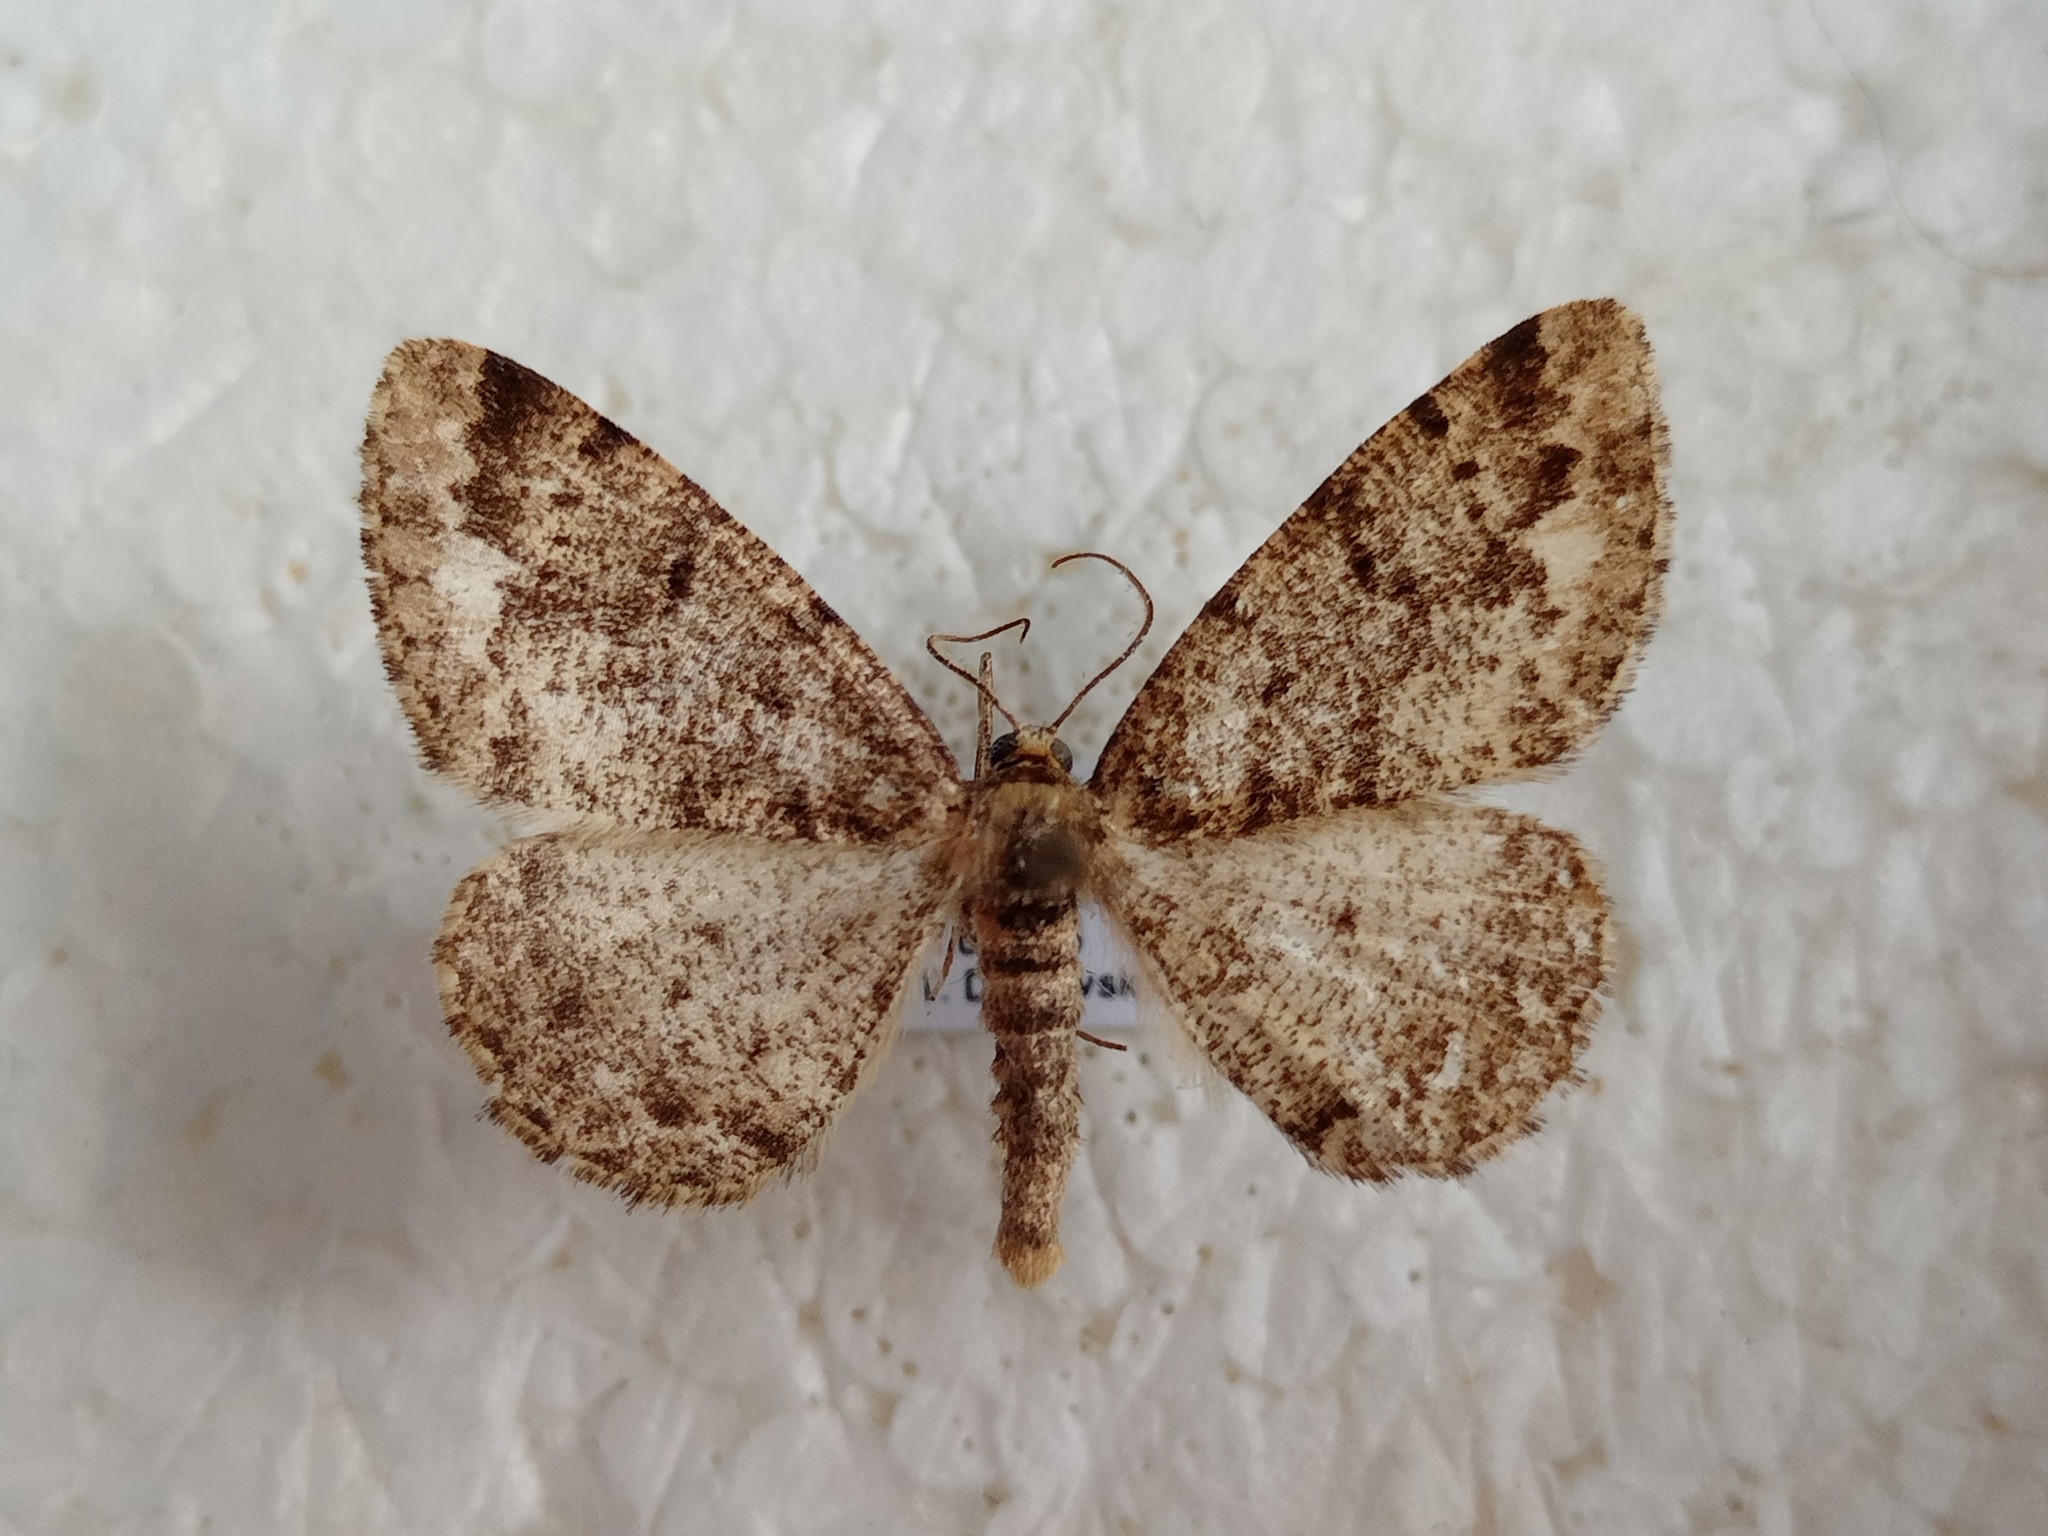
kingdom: Animalia
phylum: Arthropoda
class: Insecta
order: Lepidoptera
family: Geometridae
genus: Parectropis
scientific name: Parectropis similaria
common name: Brindled white-spot
